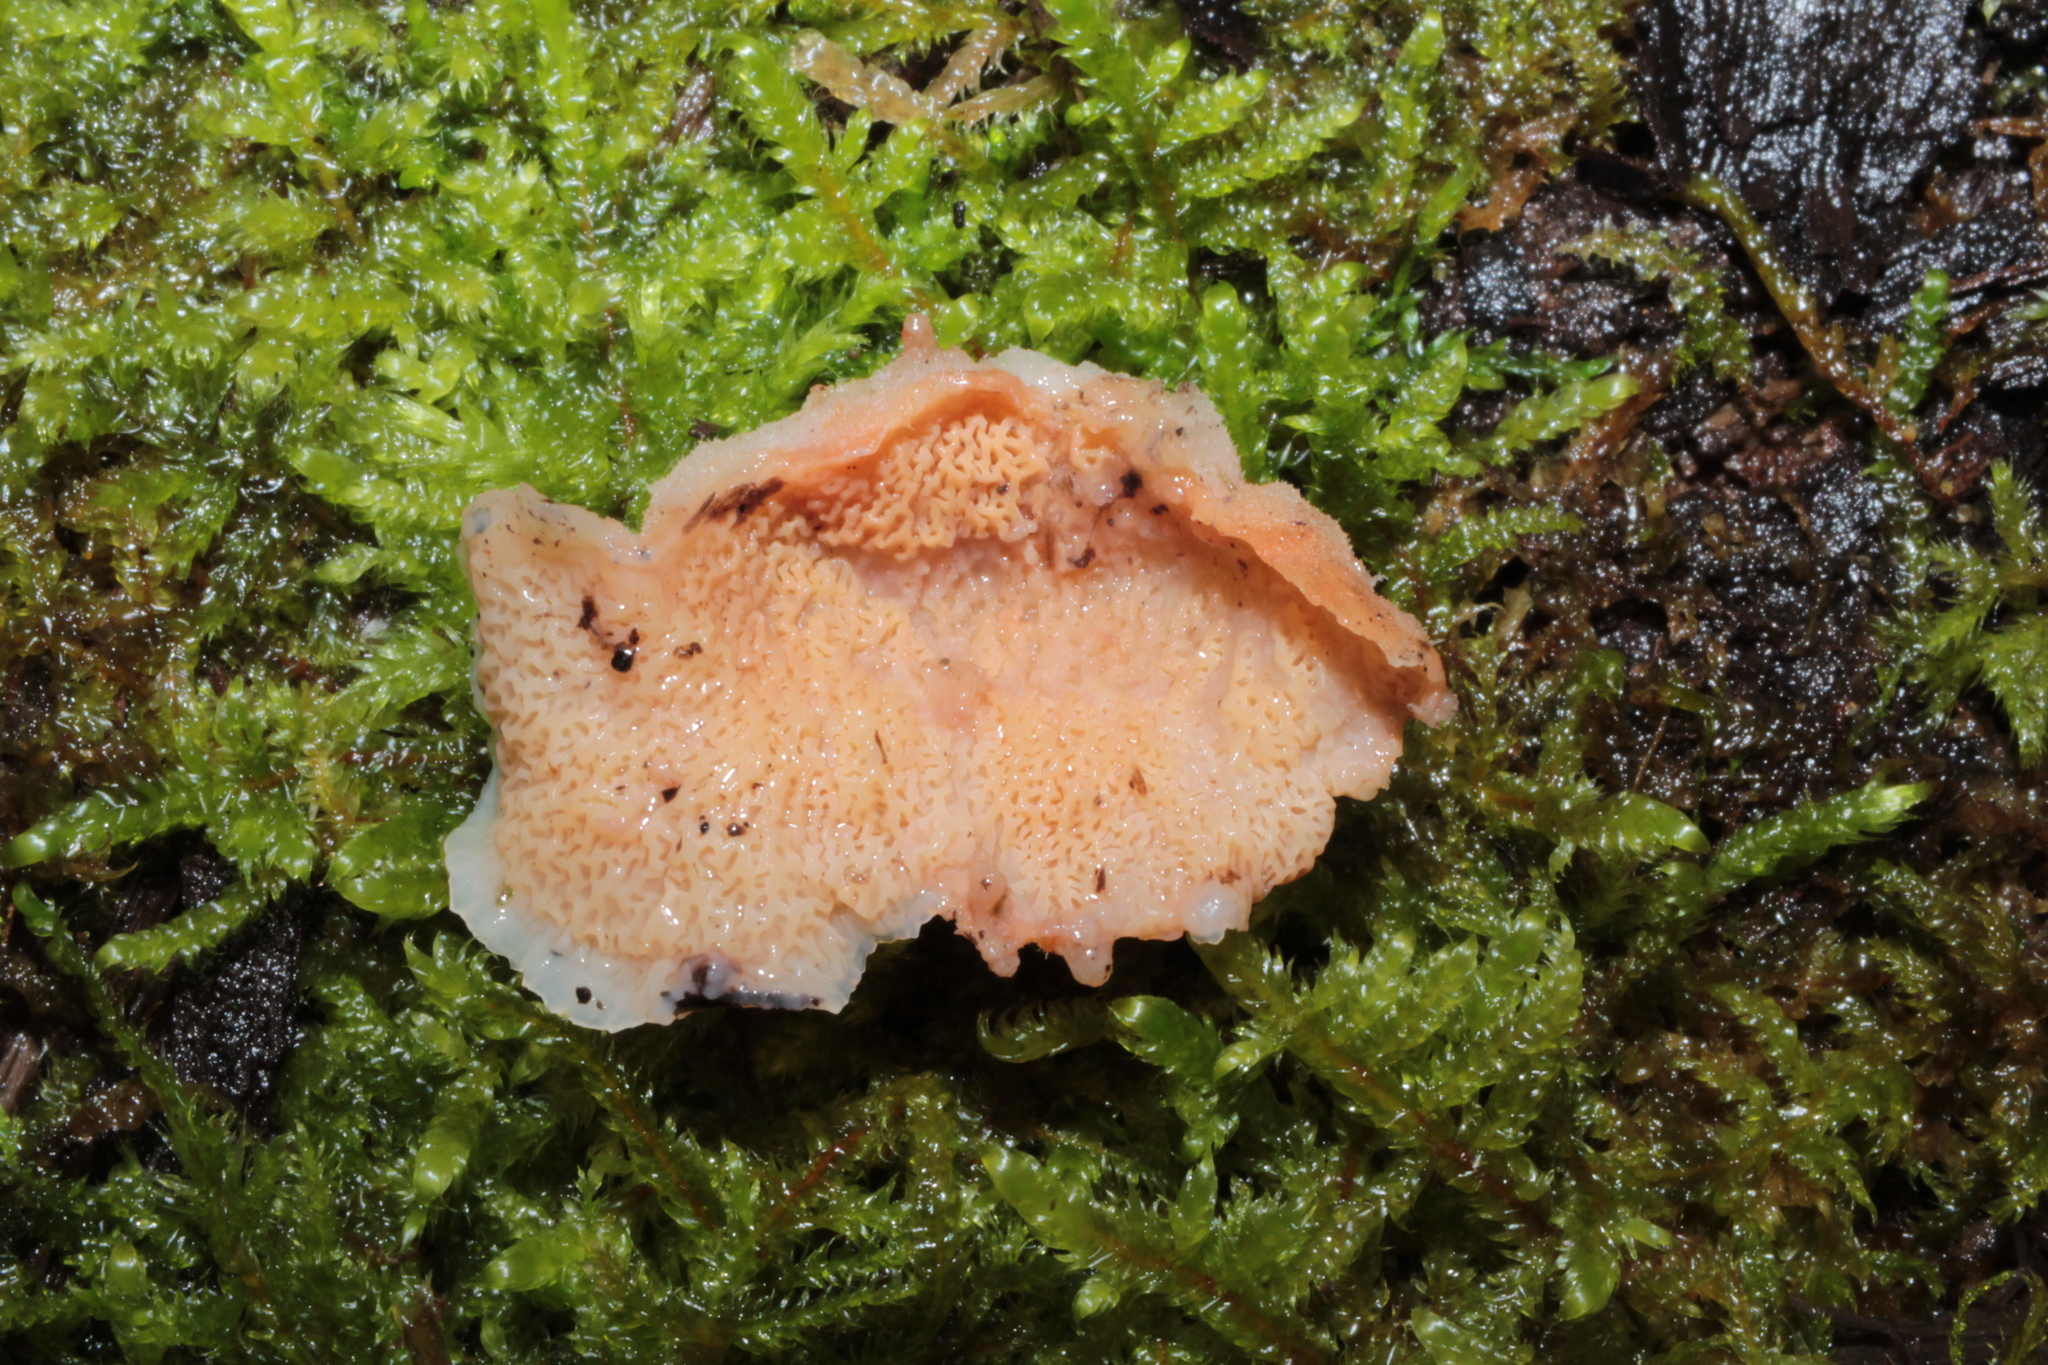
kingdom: Fungi
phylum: Basidiomycota
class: Agaricomycetes
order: Polyporales
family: Meruliaceae
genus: Phlebia
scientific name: Phlebia tremellosa
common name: Jelly rot
